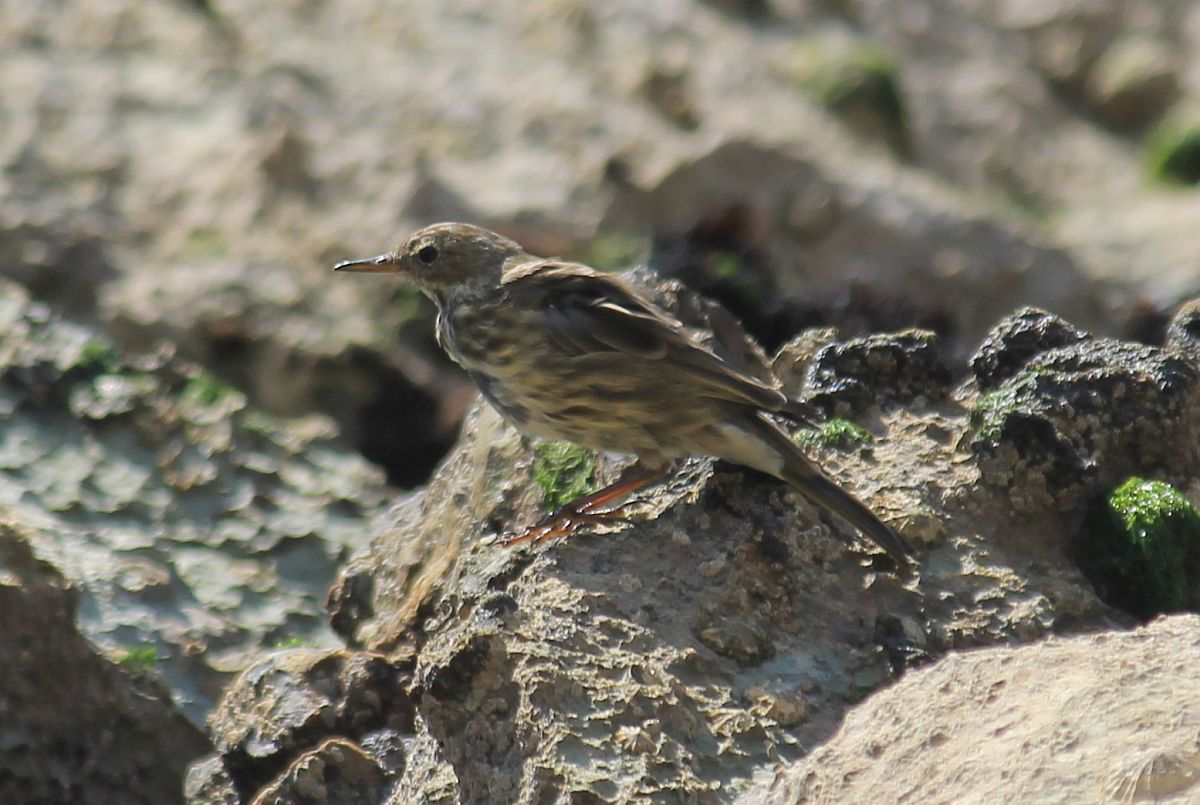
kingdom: Animalia
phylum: Chordata
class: Aves
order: Passeriformes
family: Motacillidae
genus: Anthus
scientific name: Anthus petrosus
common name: Eurasian rock pipit
